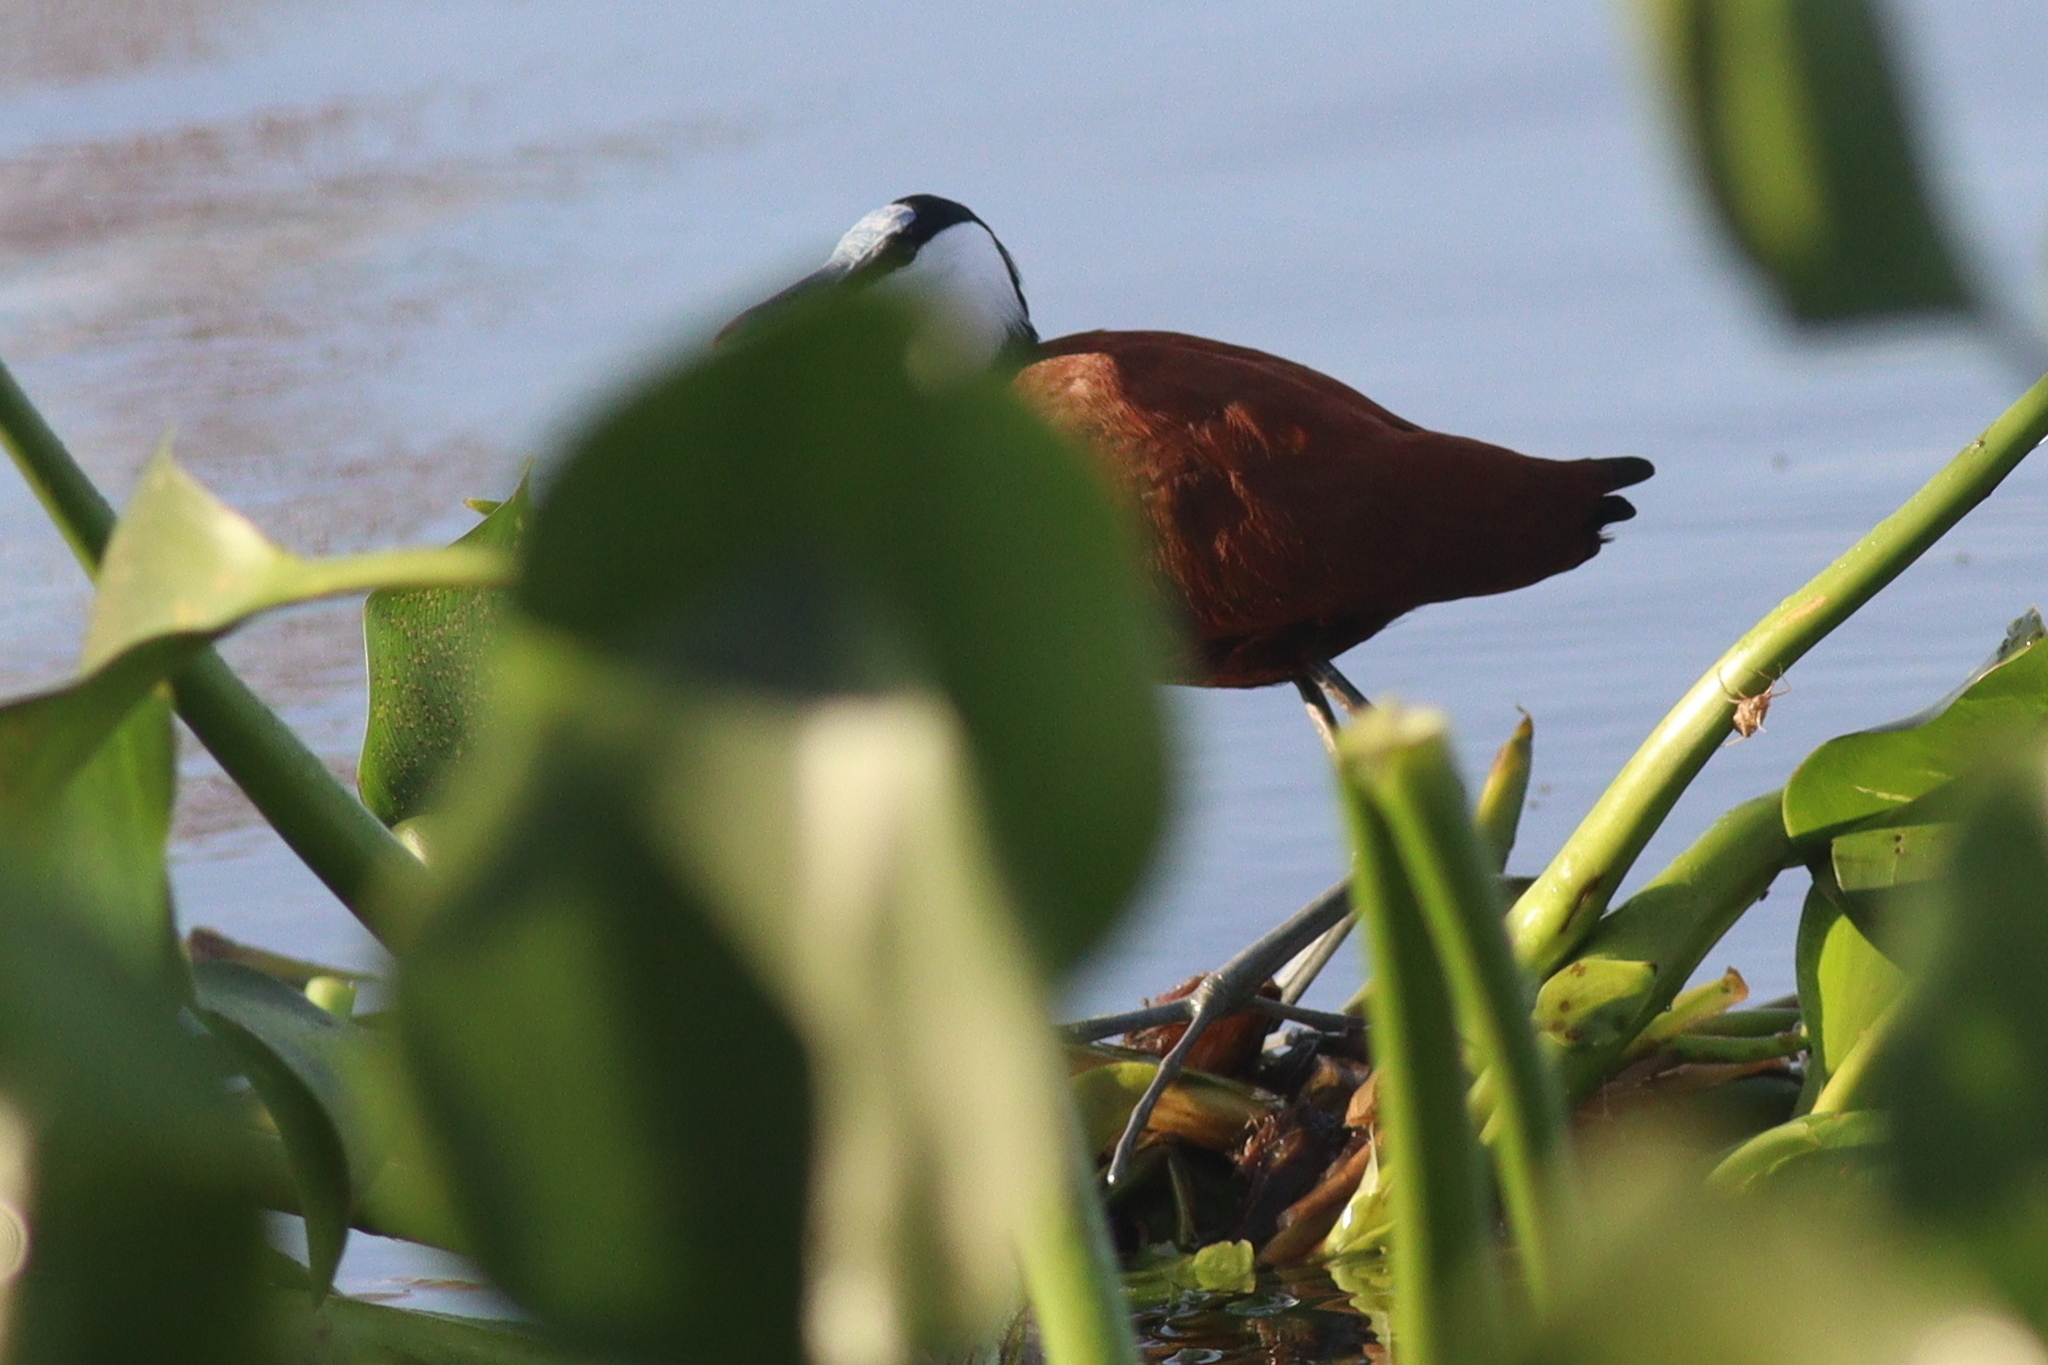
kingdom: Animalia
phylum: Chordata
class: Aves
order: Charadriiformes
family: Jacanidae
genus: Actophilornis
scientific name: Actophilornis africanus
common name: African jacana
